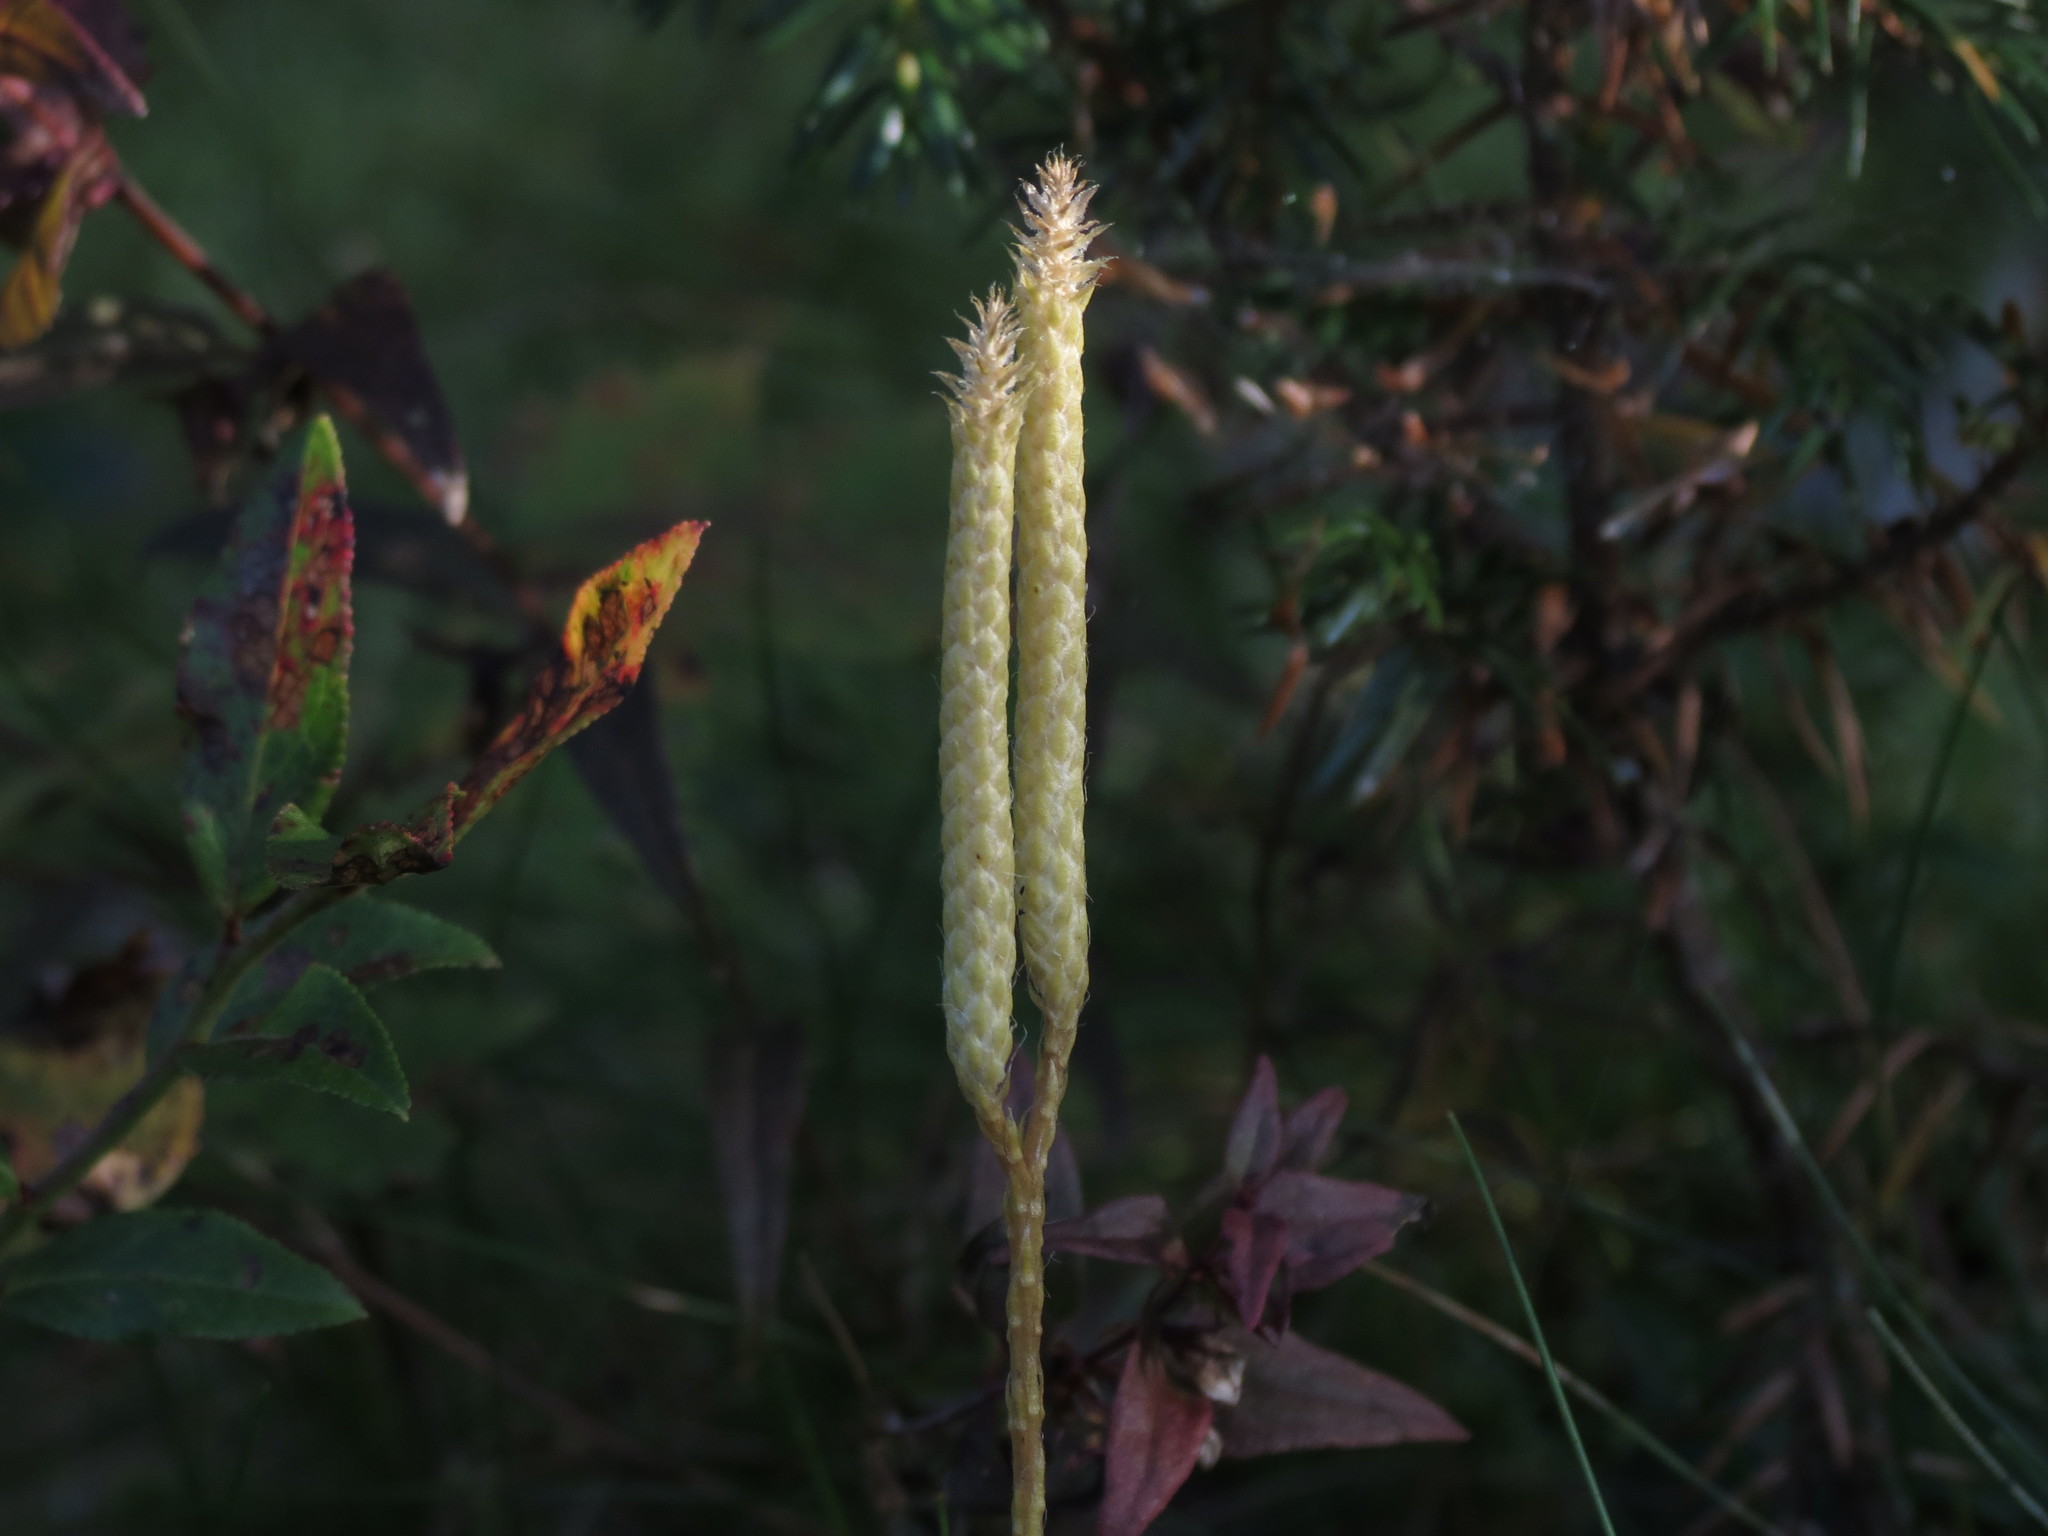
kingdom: Plantae
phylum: Tracheophyta
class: Lycopodiopsida
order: Lycopodiales
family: Lycopodiaceae
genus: Lycopodium
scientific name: Lycopodium clavatum
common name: Stag's-horn clubmoss
